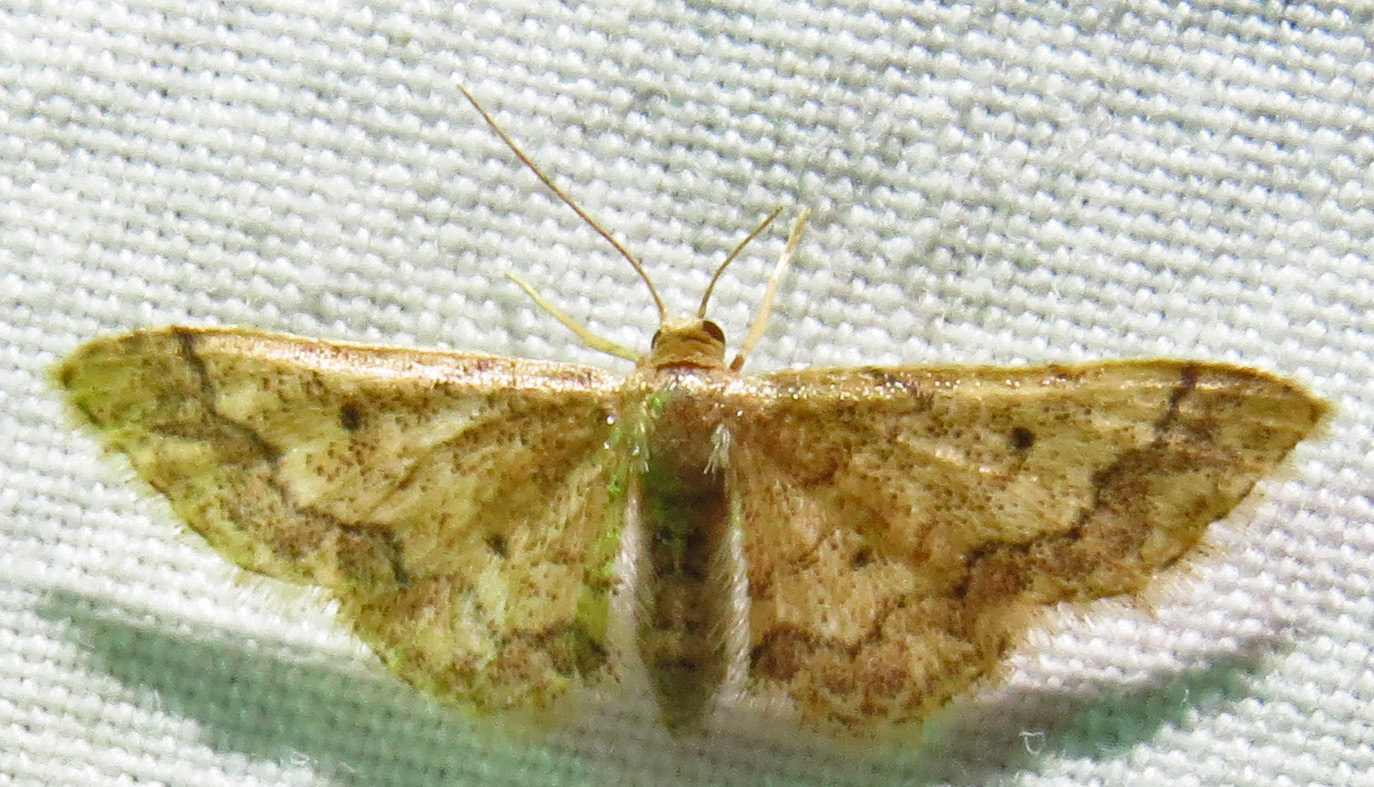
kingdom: Animalia
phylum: Arthropoda
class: Insecta
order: Lepidoptera
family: Geometridae
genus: Idaea
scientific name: Idaea celtima
